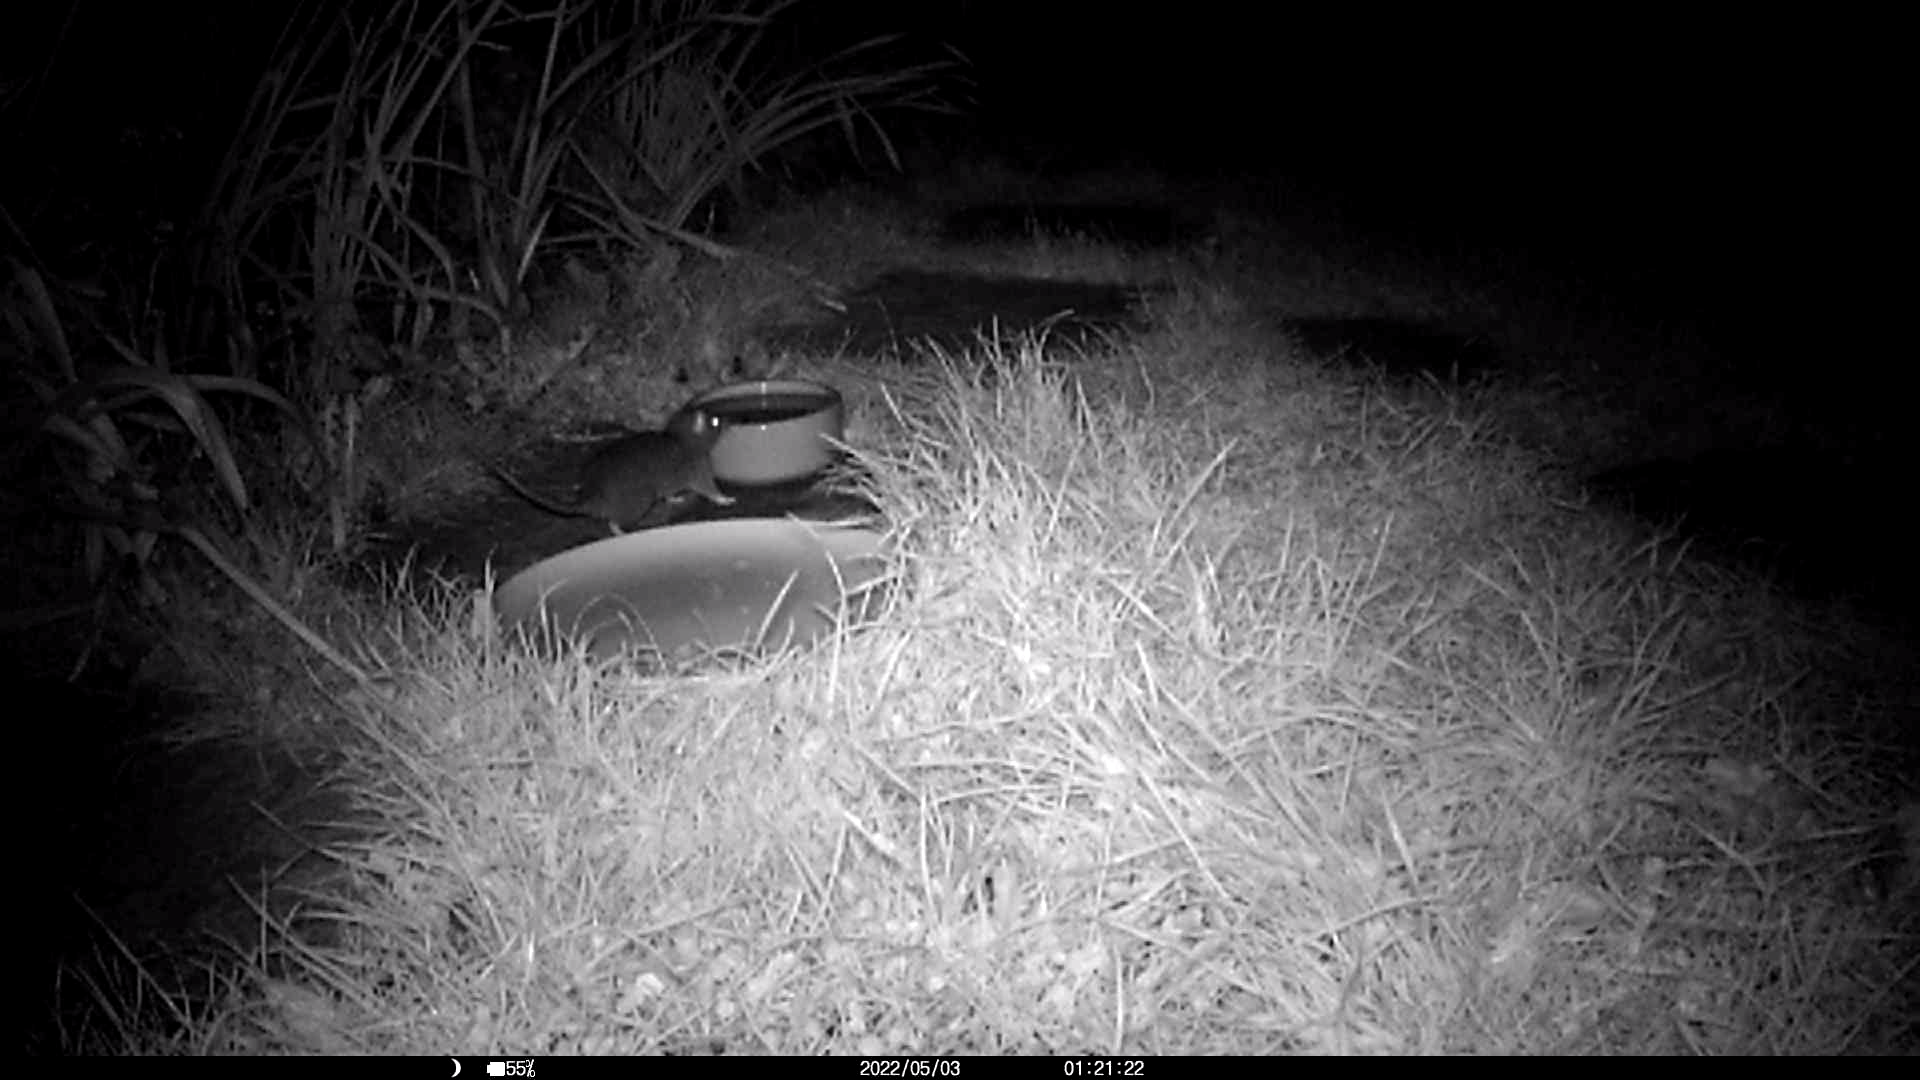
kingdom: Animalia
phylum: Chordata
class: Mammalia
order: Rodentia
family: Muridae
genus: Rattus
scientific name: Rattus norvegicus
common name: Brown rat
